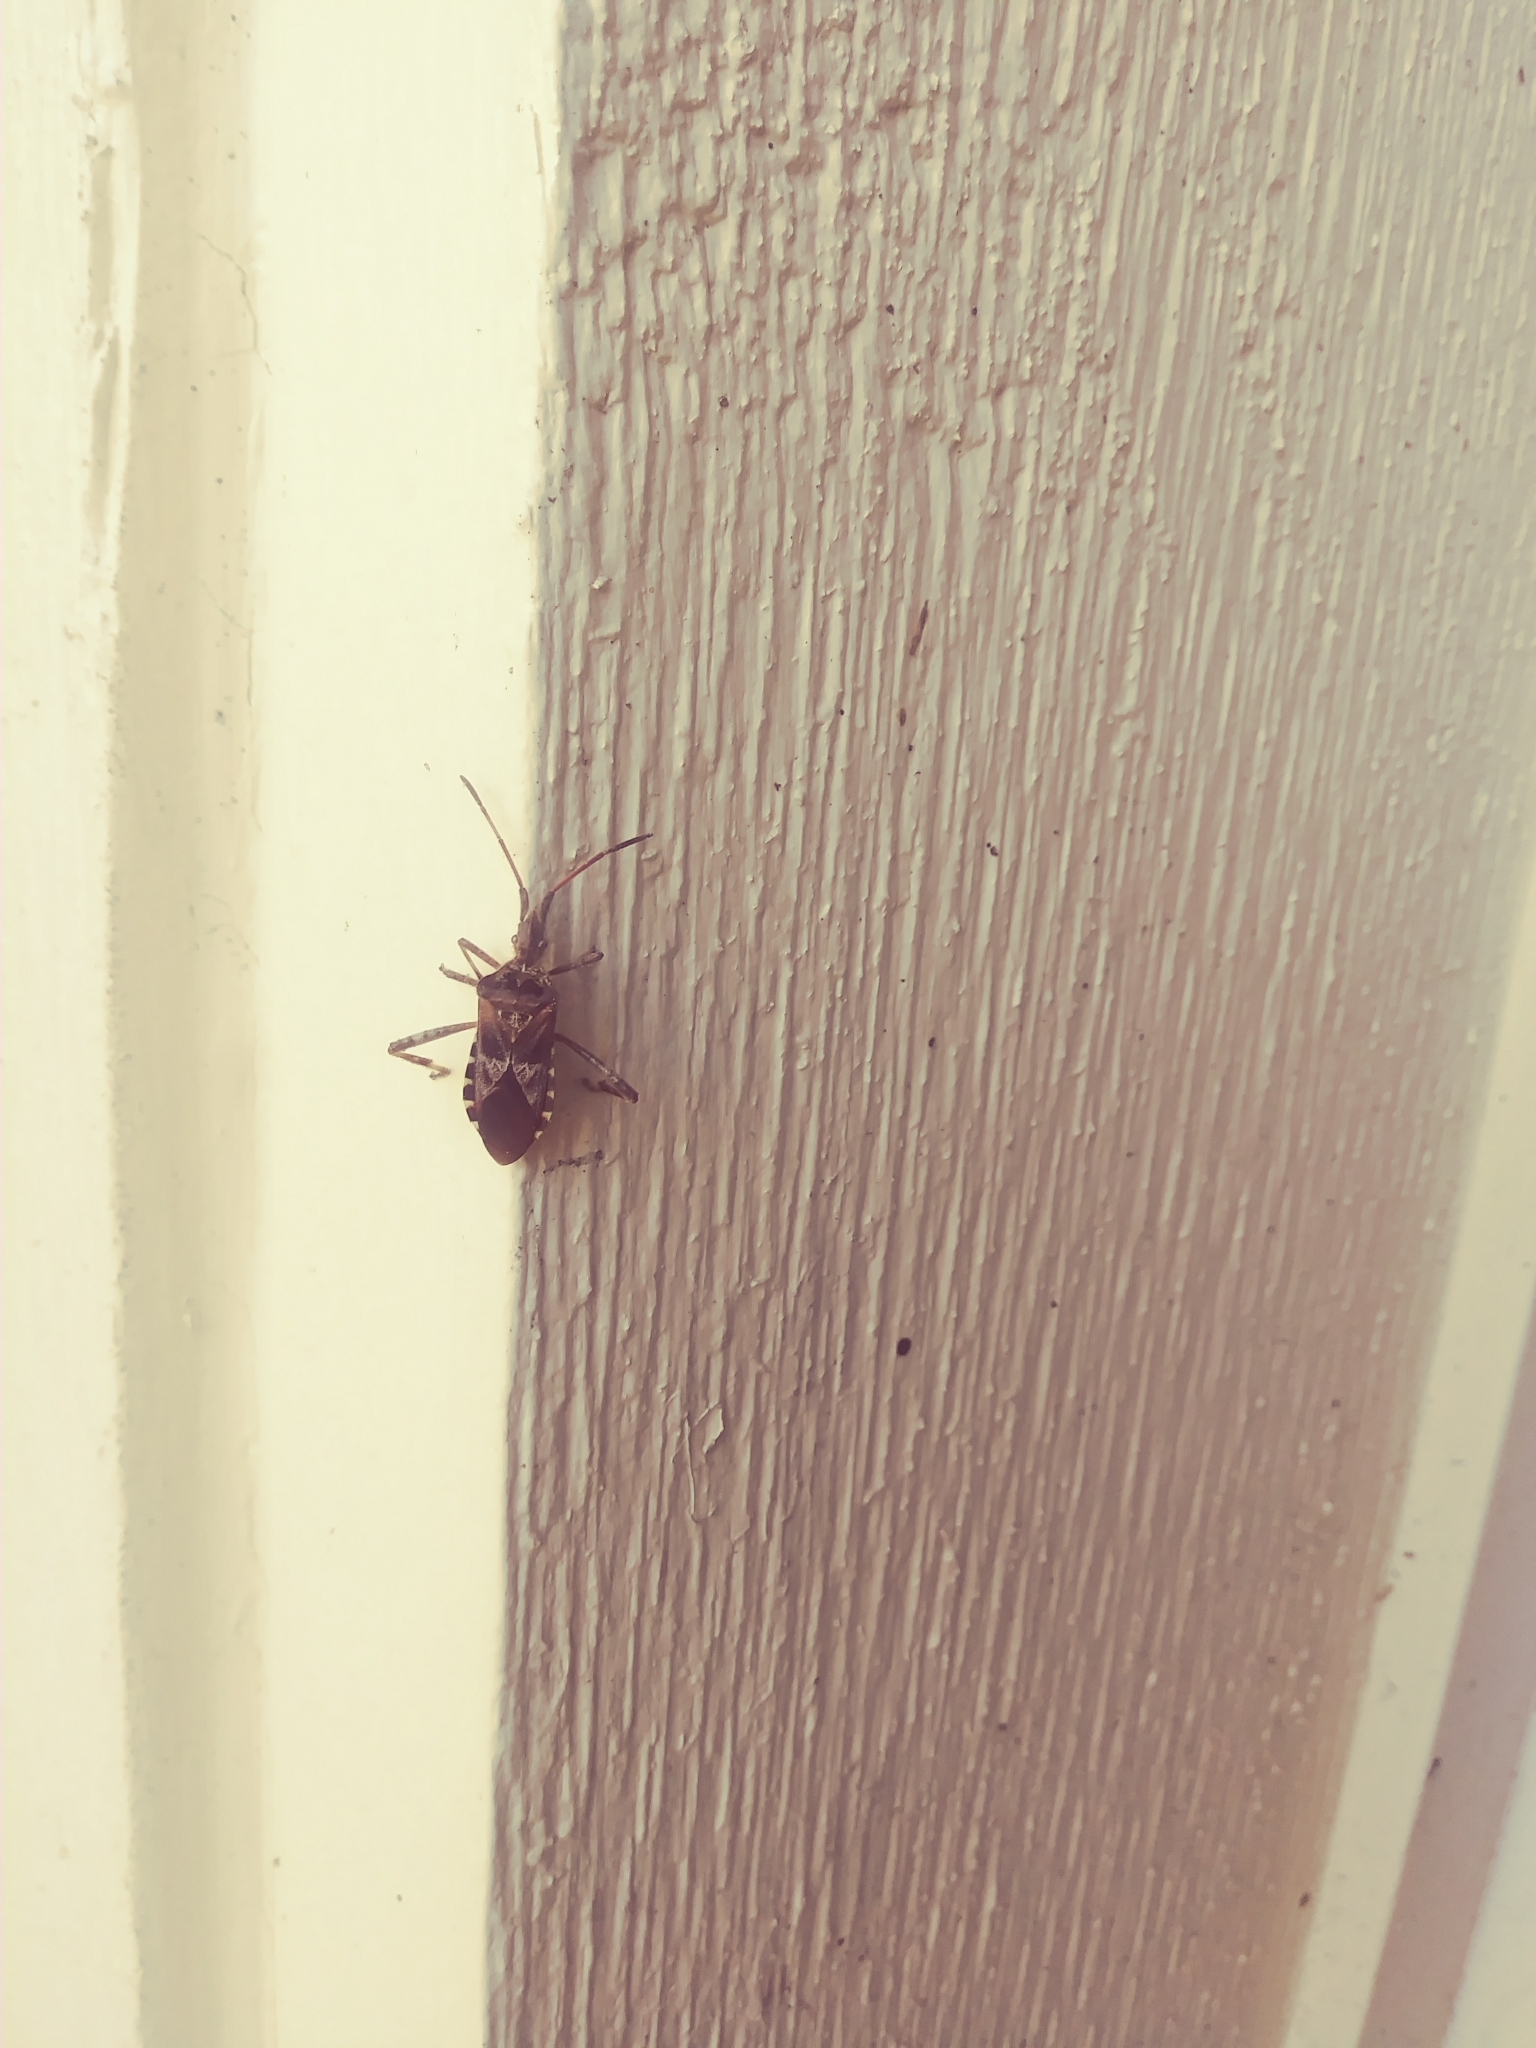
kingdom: Animalia
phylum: Arthropoda
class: Insecta
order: Hemiptera
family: Coreidae
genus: Leptoglossus
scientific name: Leptoglossus occidentalis
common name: Western conifer-seed bug
